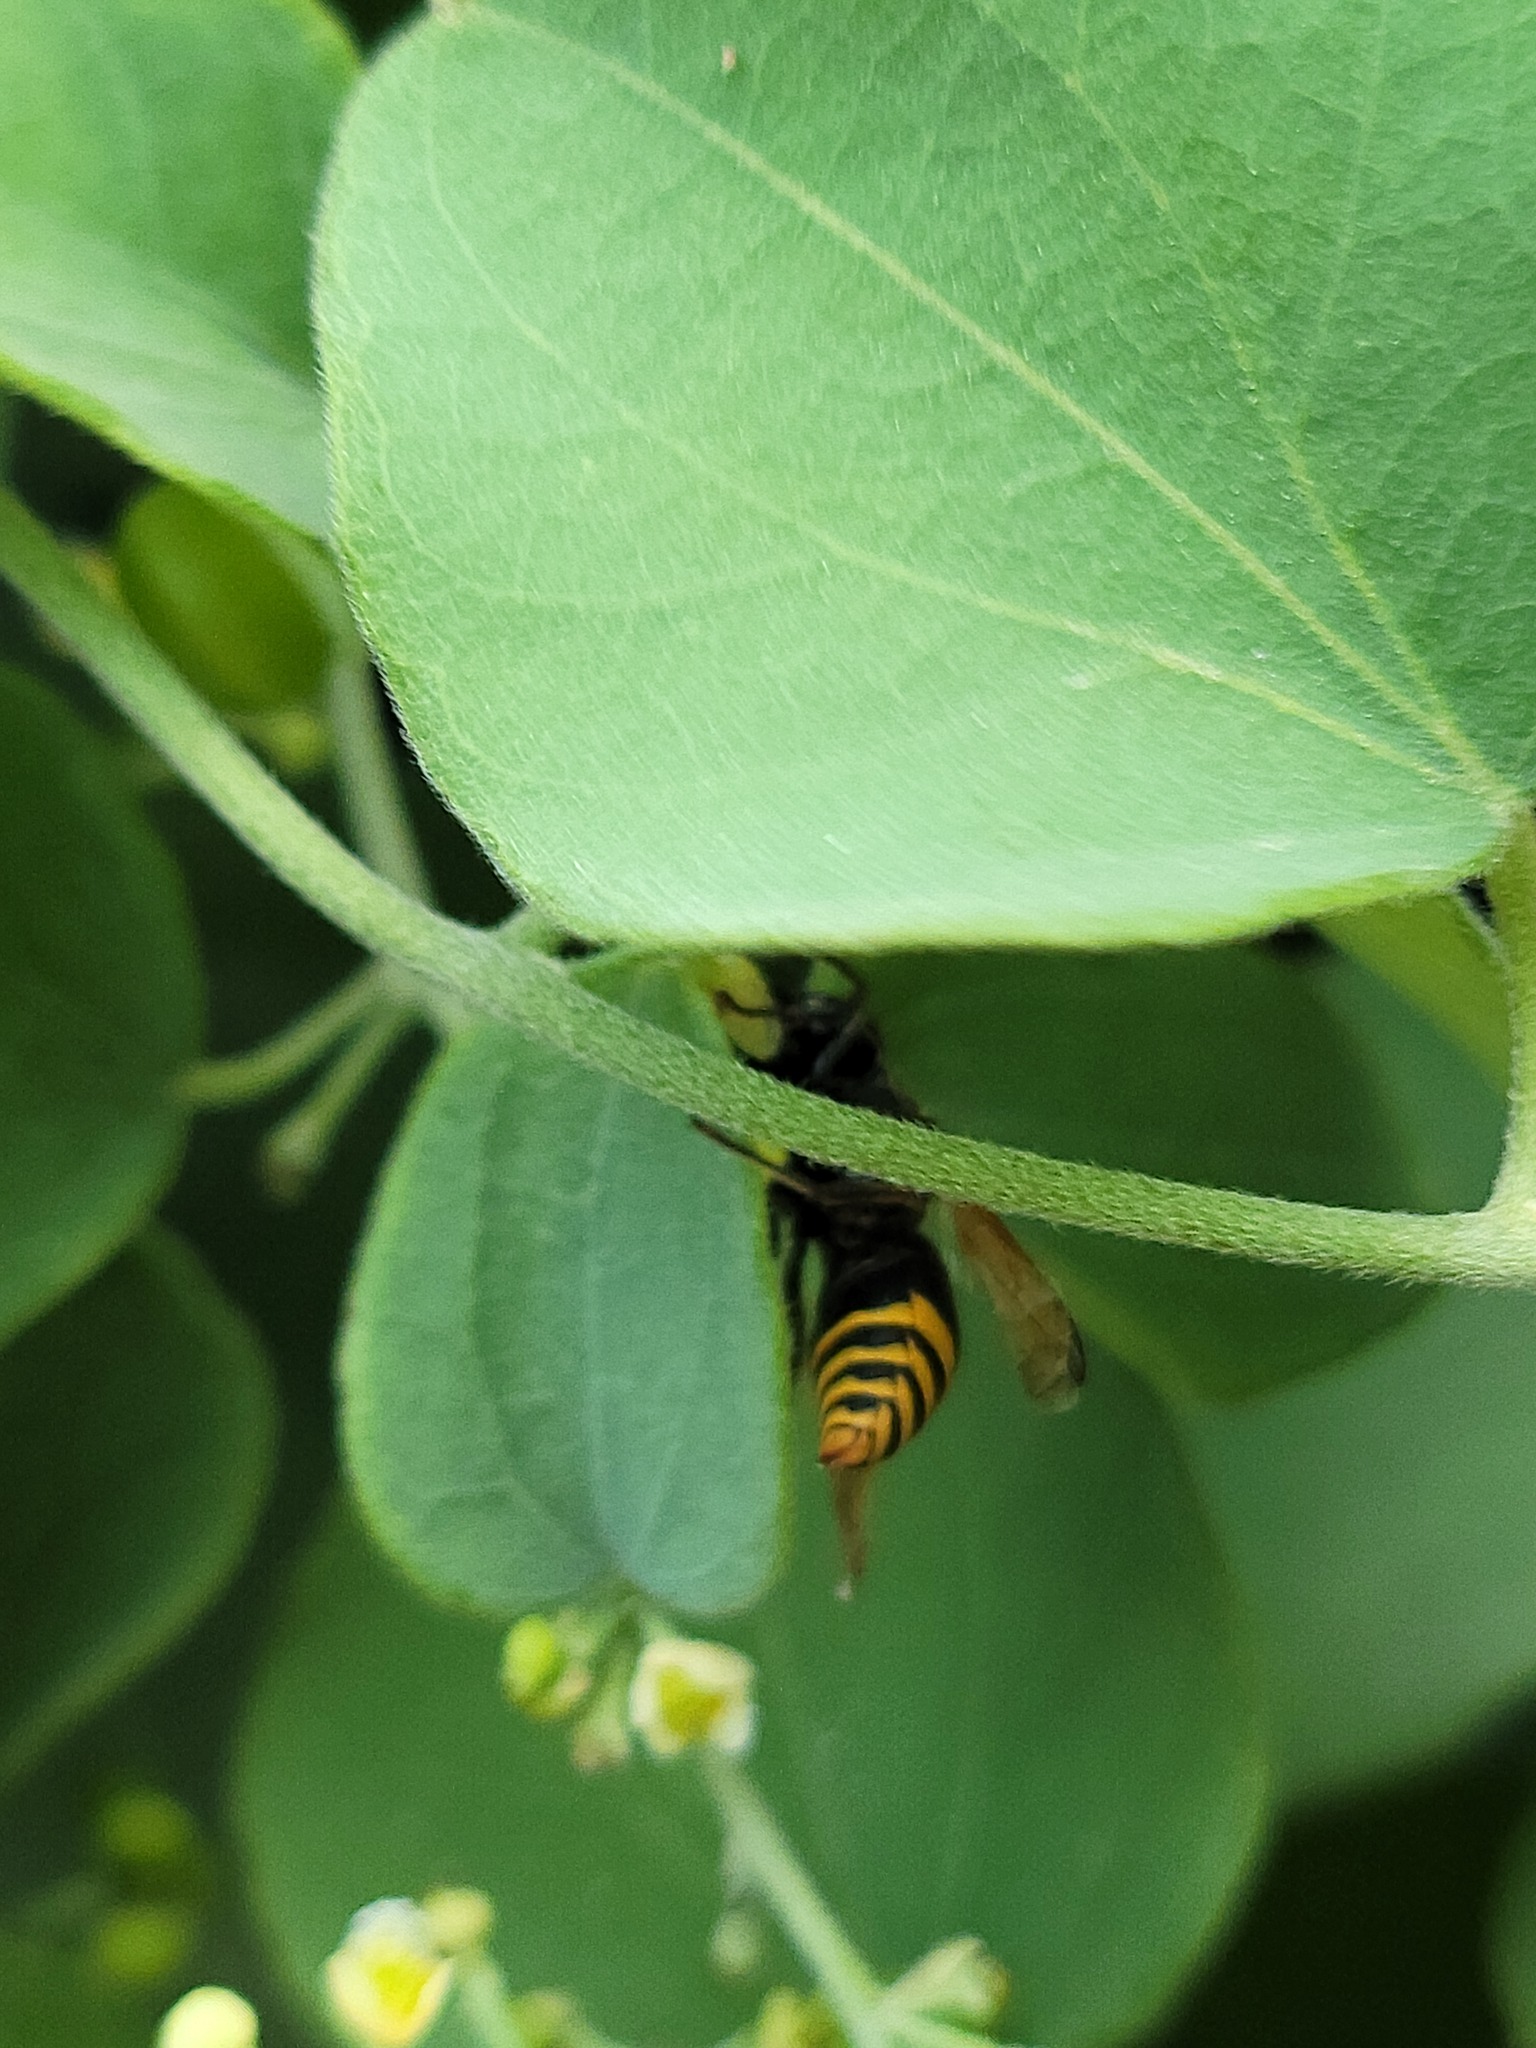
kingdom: Animalia
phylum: Arthropoda
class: Insecta
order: Hymenoptera
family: Eumenidae
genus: Pachodynerus
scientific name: Pachodynerus nasidens
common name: Key hole wasp
